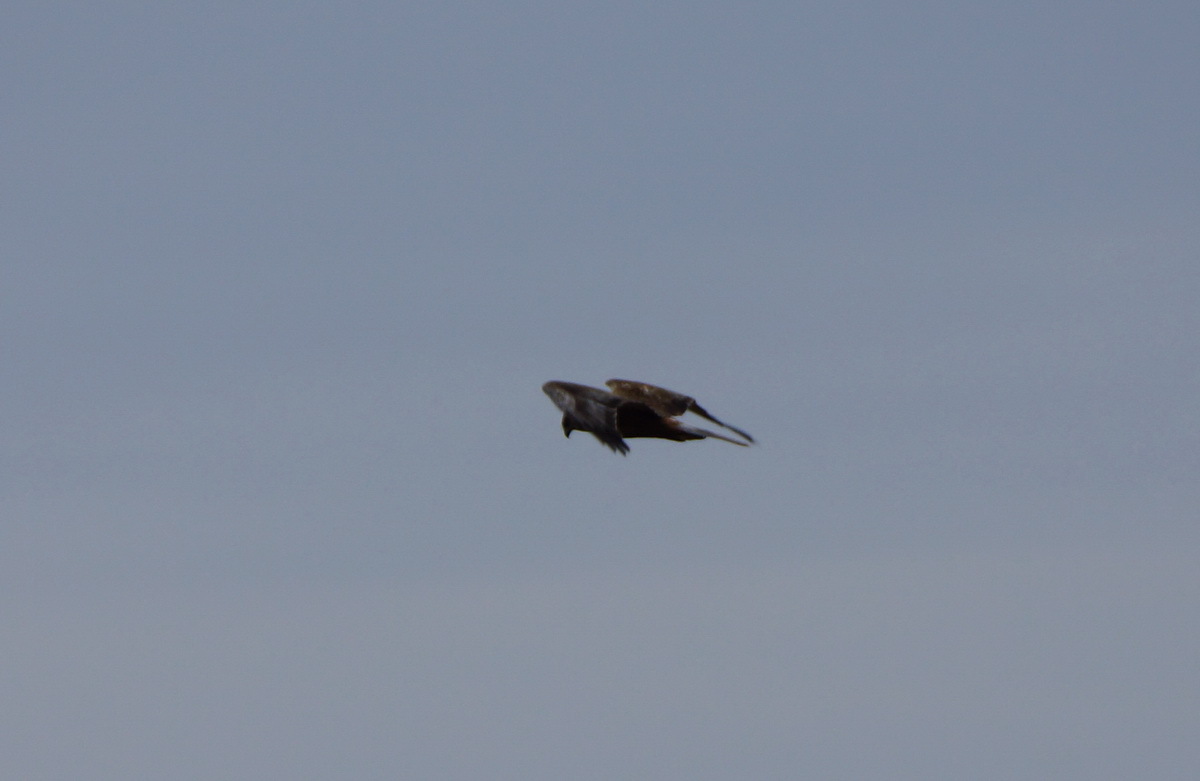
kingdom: Animalia
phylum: Chordata
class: Aves
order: Accipitriformes
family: Accipitridae
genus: Circus
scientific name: Circus aeruginosus
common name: Western marsh harrier
